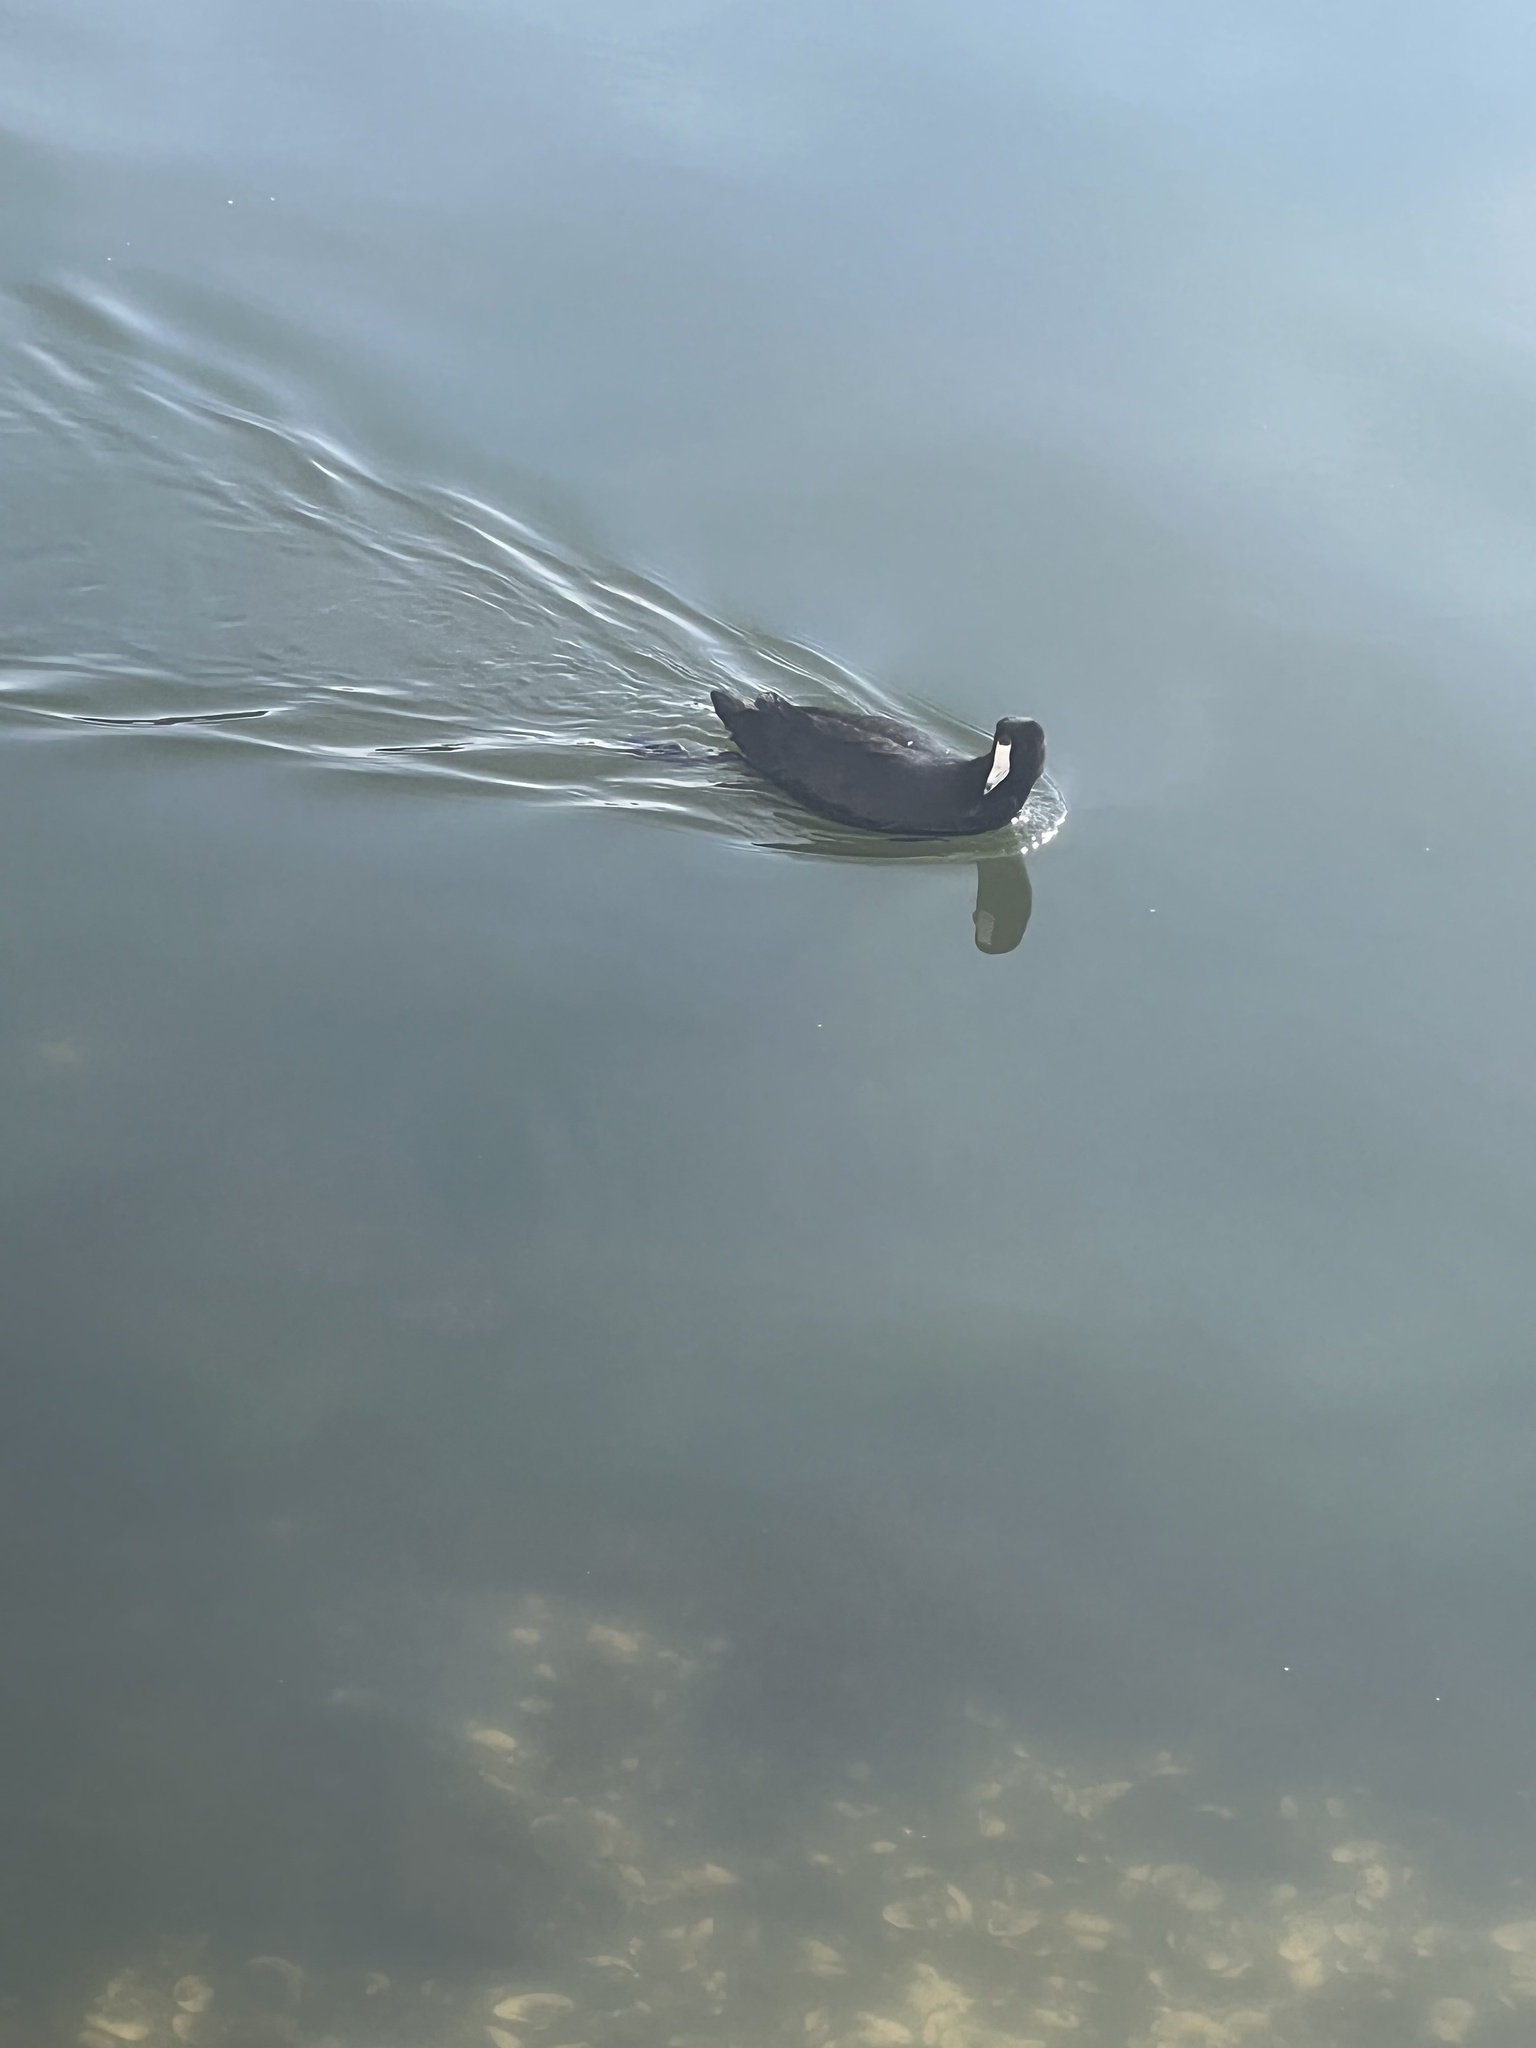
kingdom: Animalia
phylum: Chordata
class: Aves
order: Gruiformes
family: Rallidae
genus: Fulica
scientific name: Fulica americana
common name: American coot
